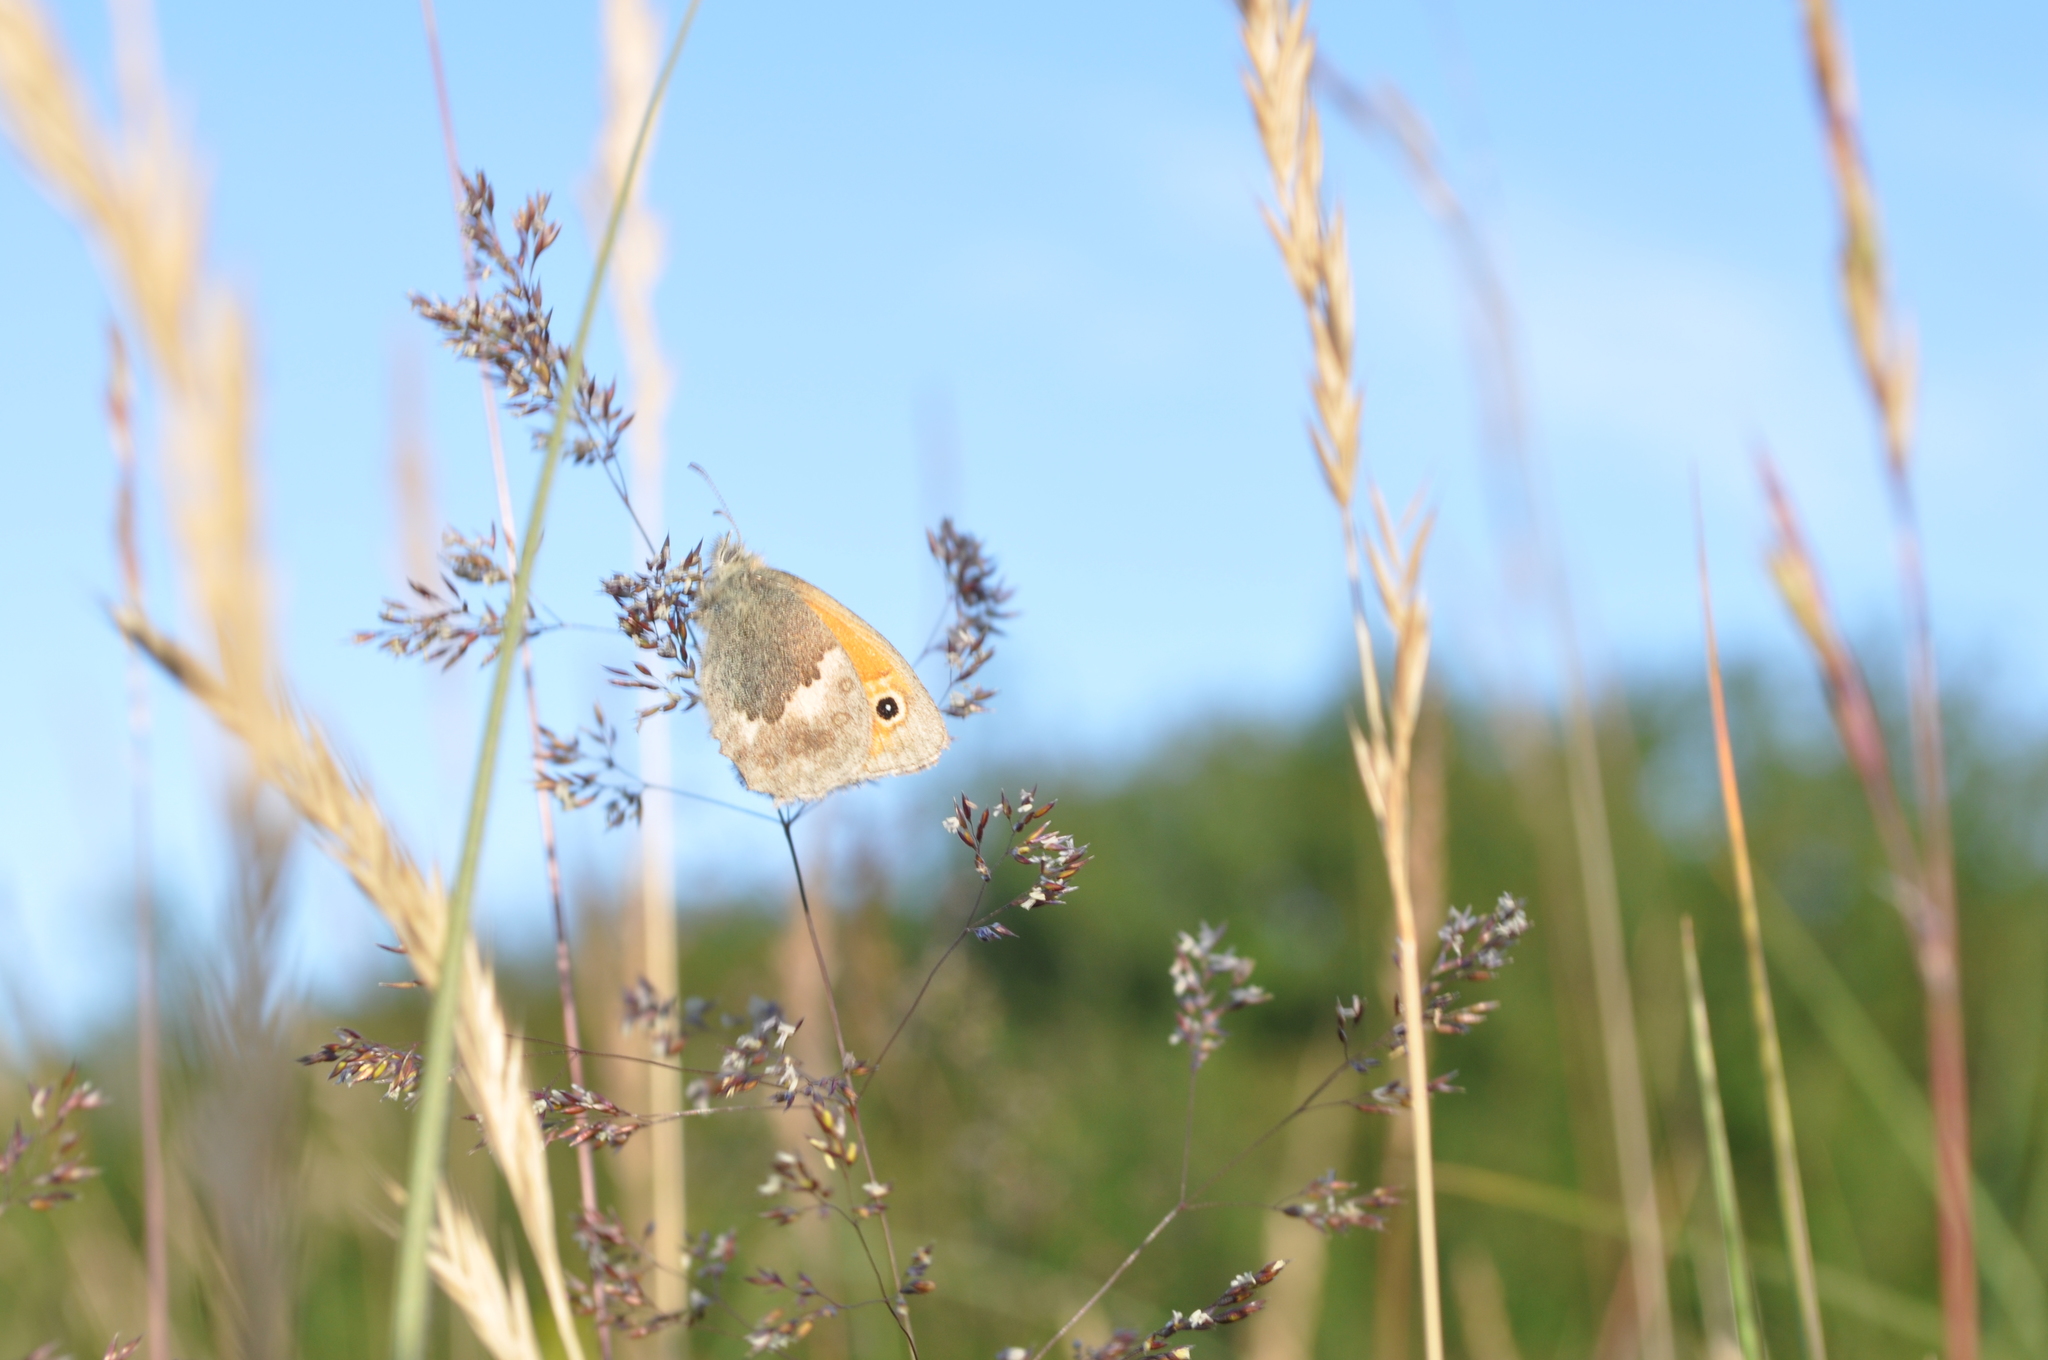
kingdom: Animalia
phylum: Arthropoda
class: Insecta
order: Lepidoptera
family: Nymphalidae
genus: Coenonympha
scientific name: Coenonympha pamphilus
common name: Small heath
